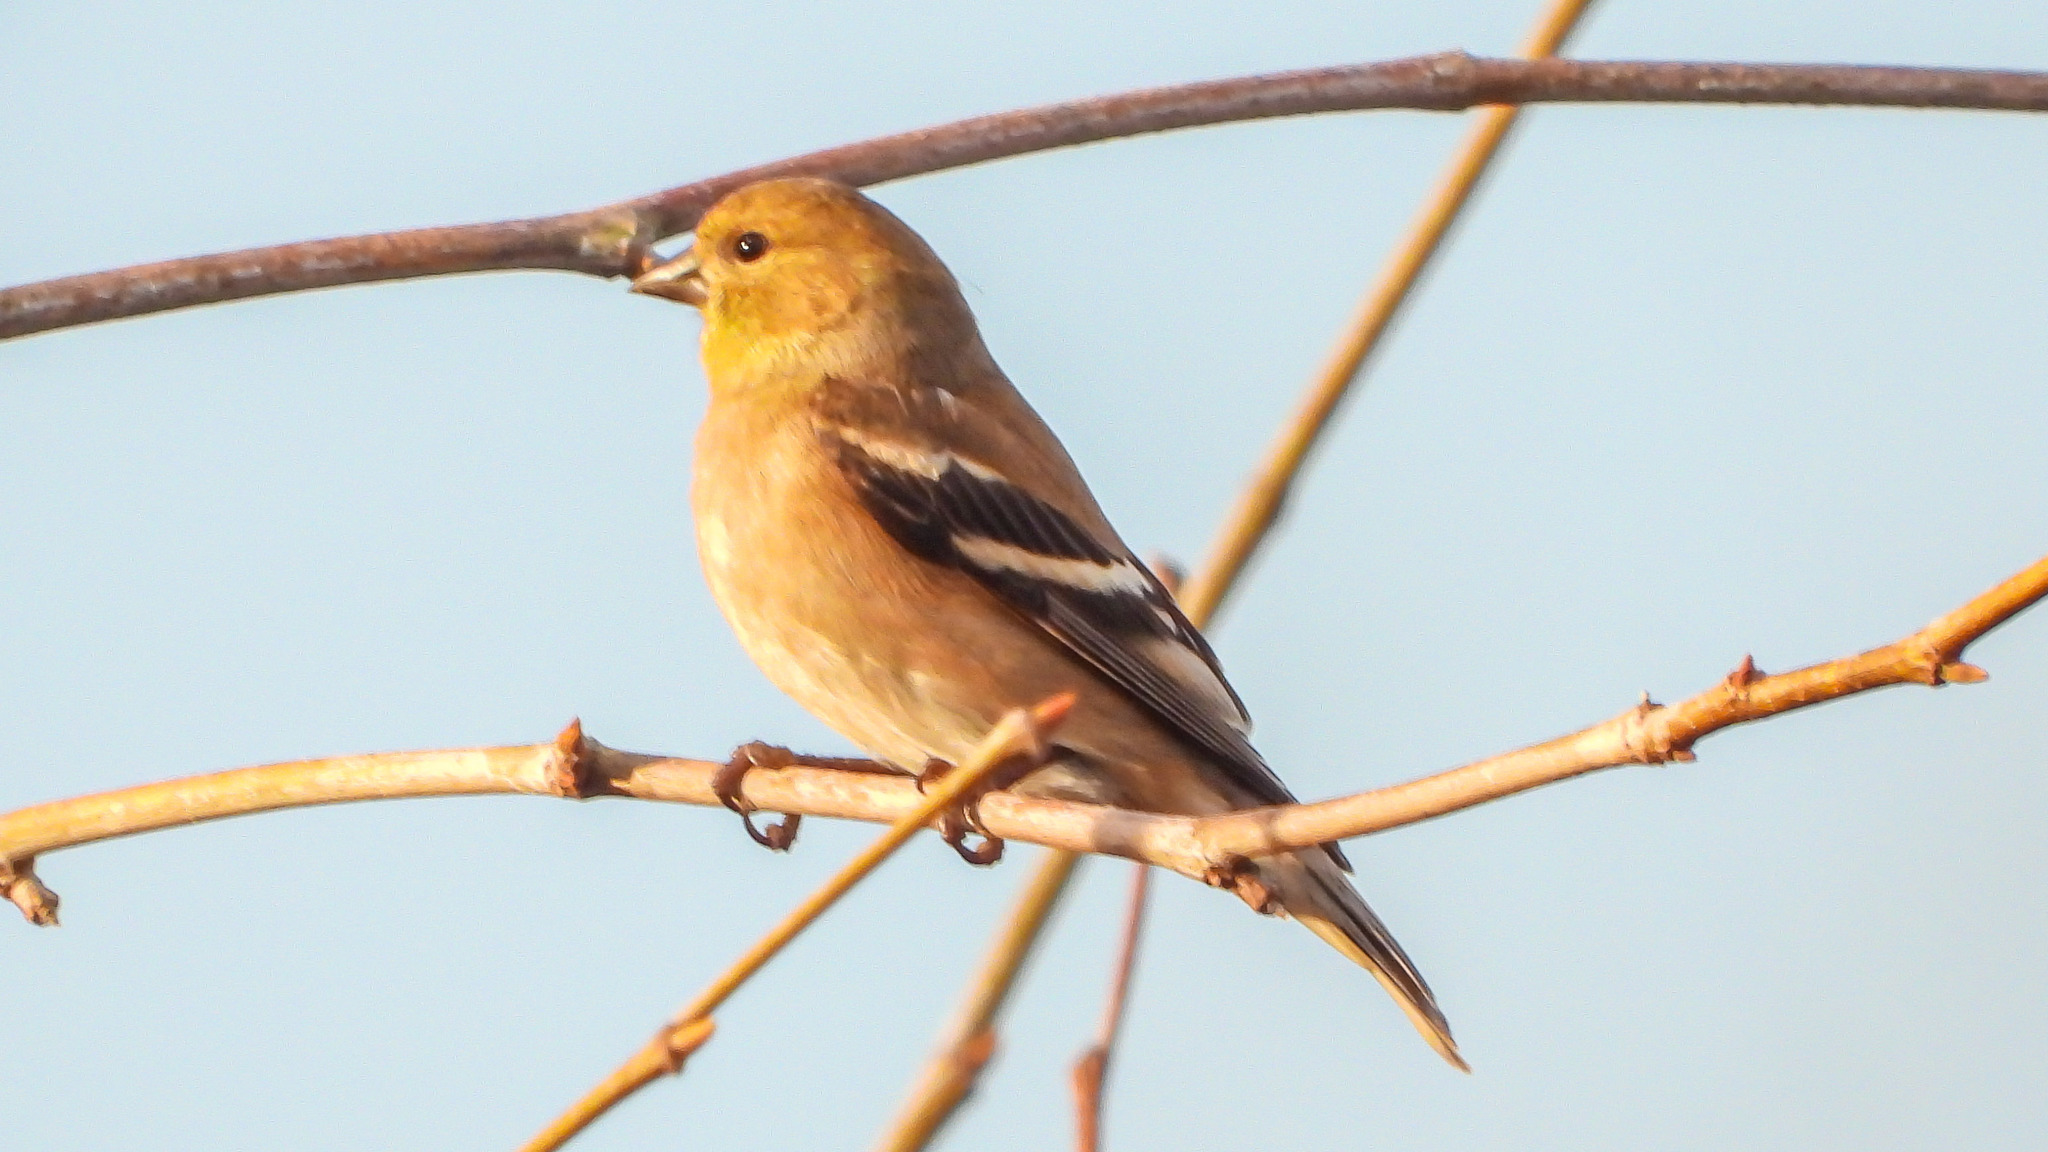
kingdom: Animalia
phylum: Chordata
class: Aves
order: Passeriformes
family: Fringillidae
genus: Spinus
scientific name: Spinus tristis
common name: American goldfinch
